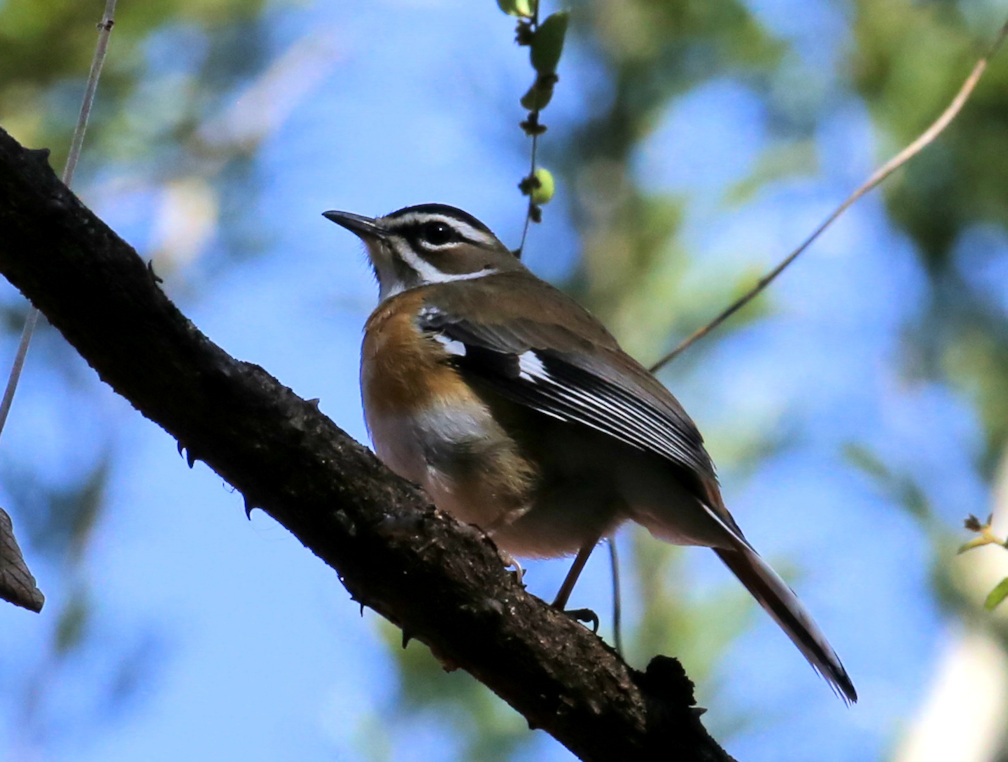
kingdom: Animalia
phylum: Chordata
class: Aves
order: Passeriformes
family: Muscicapidae
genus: Erythropygia
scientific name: Erythropygia quadrivirgata
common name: Bearded scrub robin
